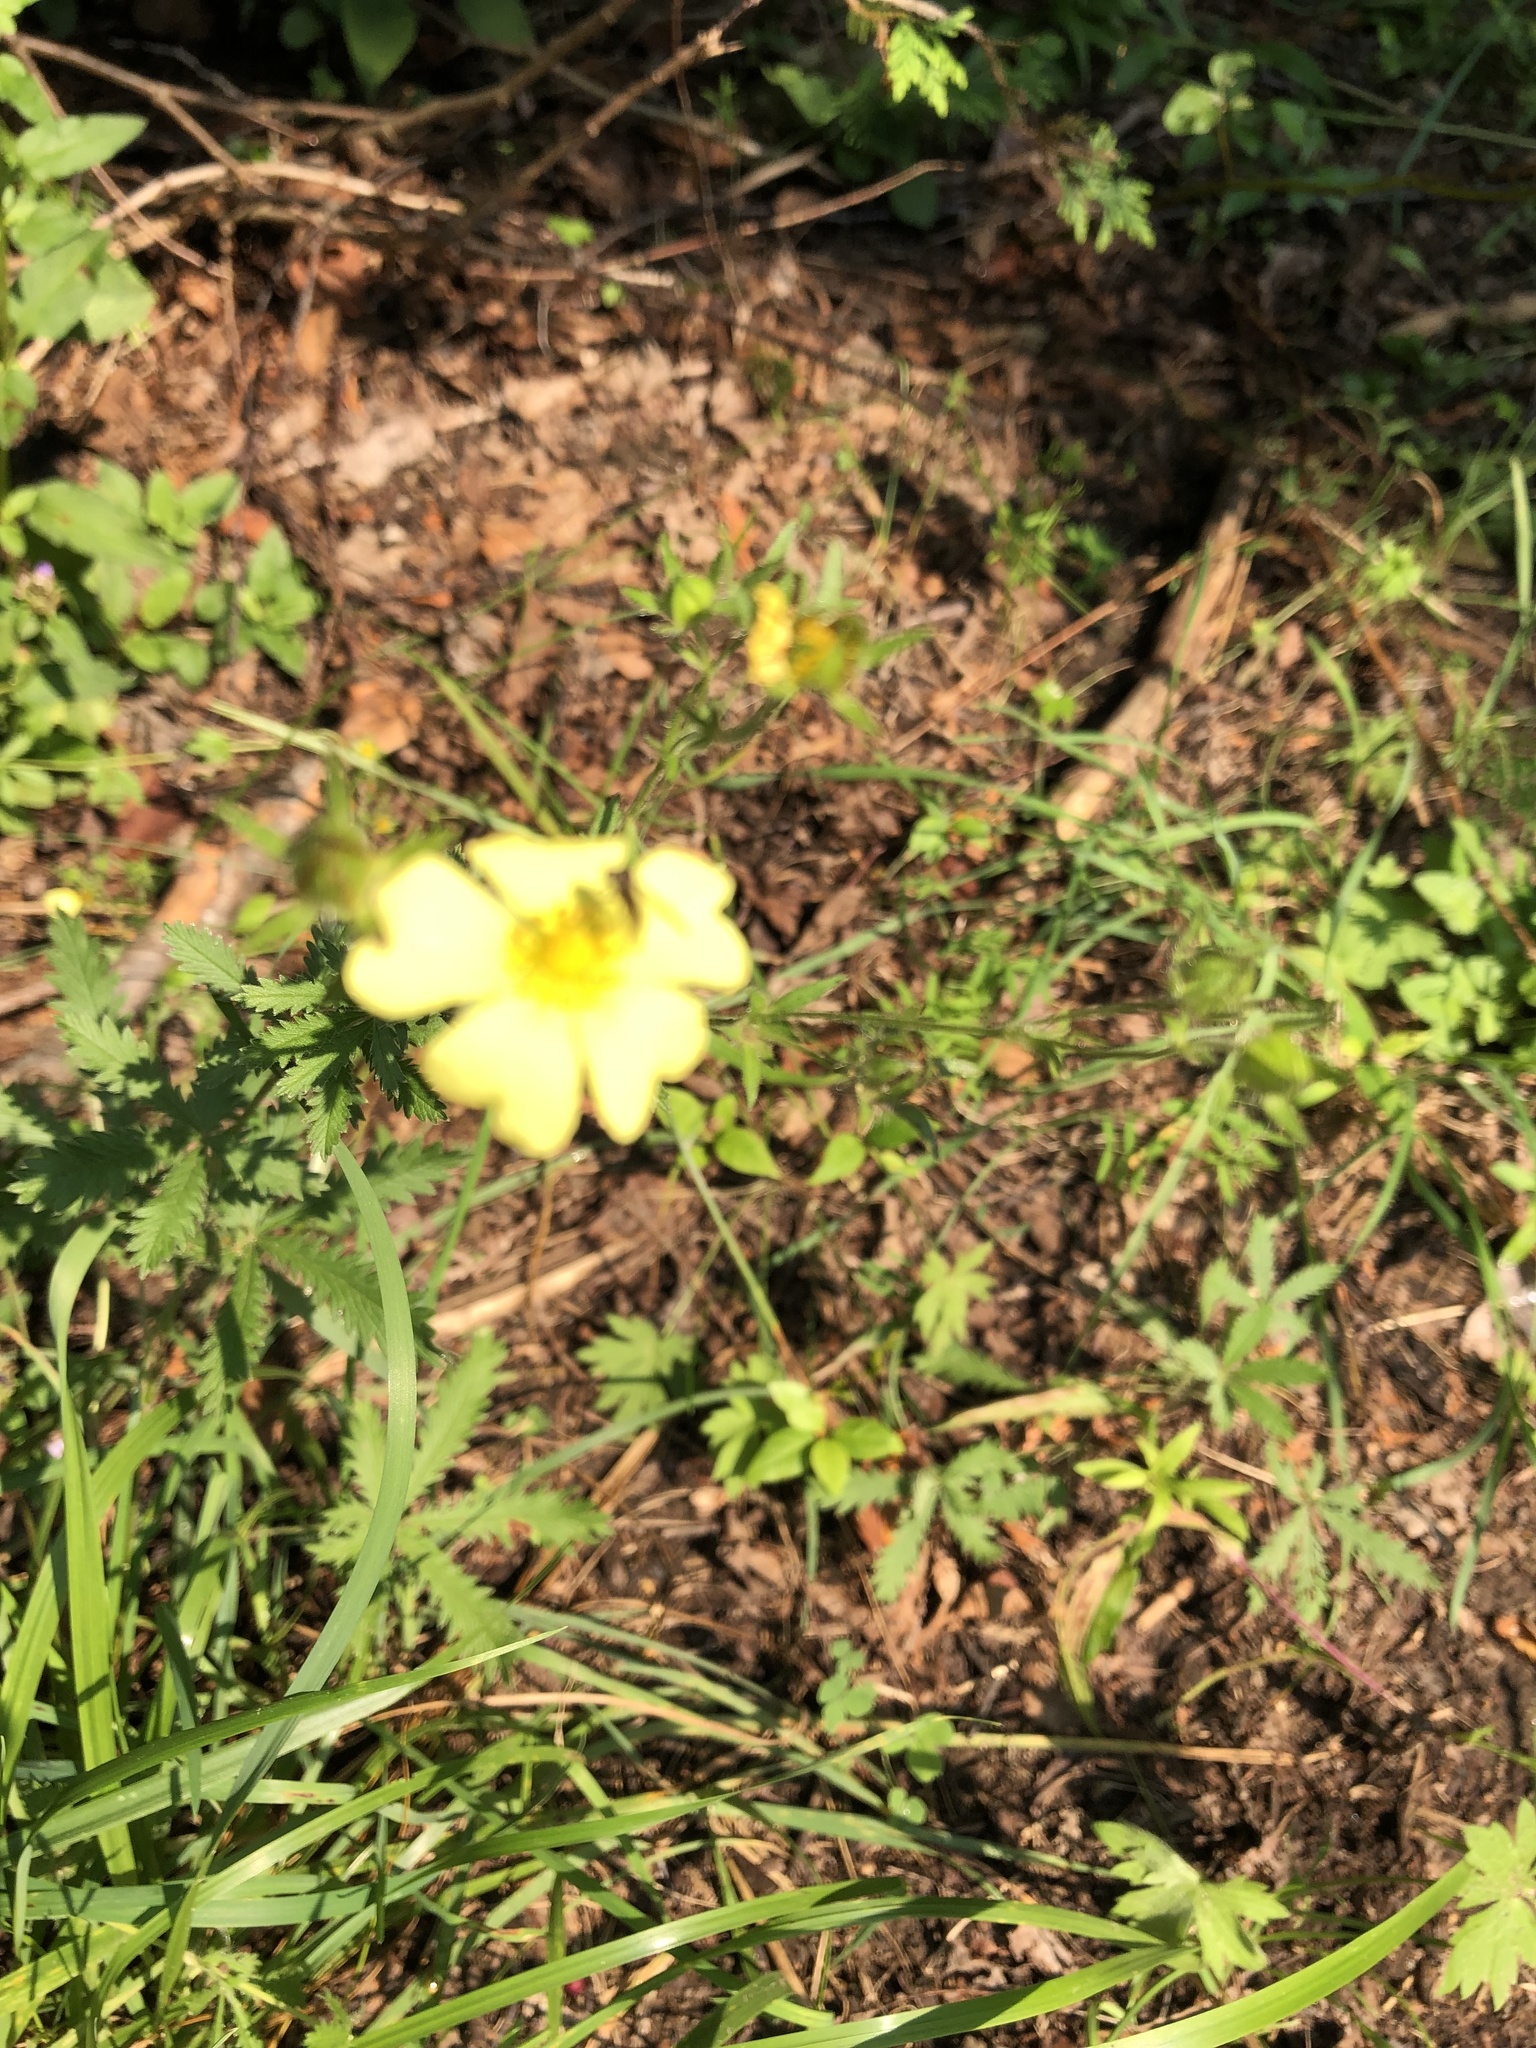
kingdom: Plantae
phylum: Tracheophyta
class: Magnoliopsida
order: Rosales
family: Rosaceae
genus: Potentilla
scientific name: Potentilla recta
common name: Sulphur cinquefoil
